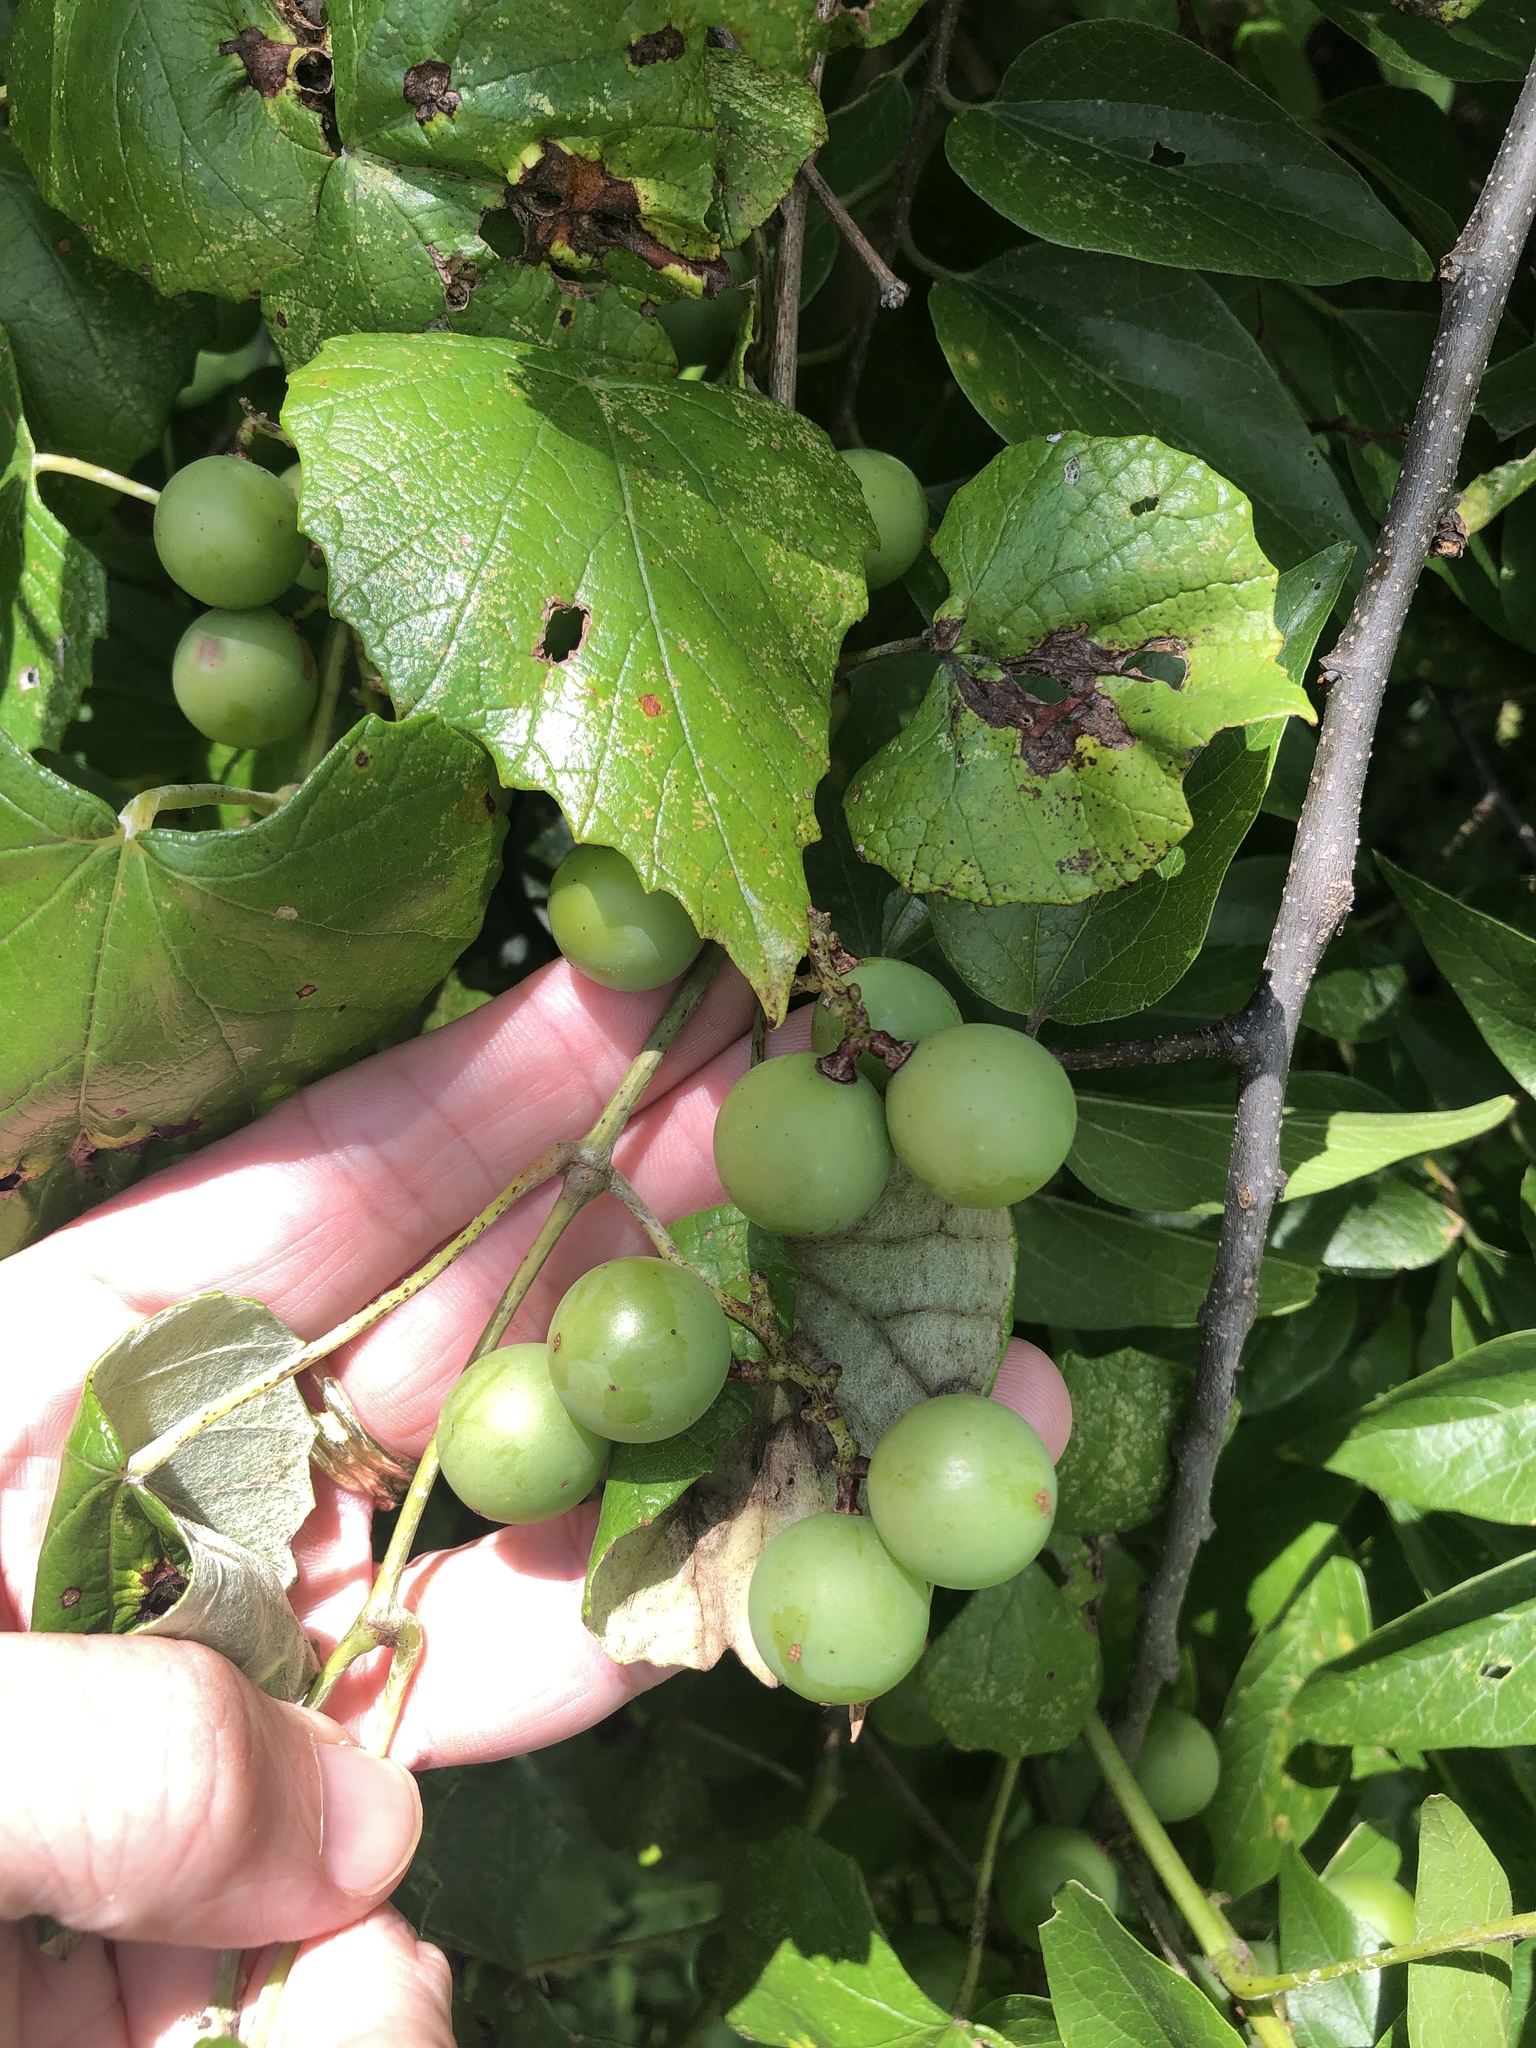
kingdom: Plantae
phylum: Tracheophyta
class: Magnoliopsida
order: Vitales
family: Vitaceae
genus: Vitis
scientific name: Vitis mustangensis
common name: Mustang grape
